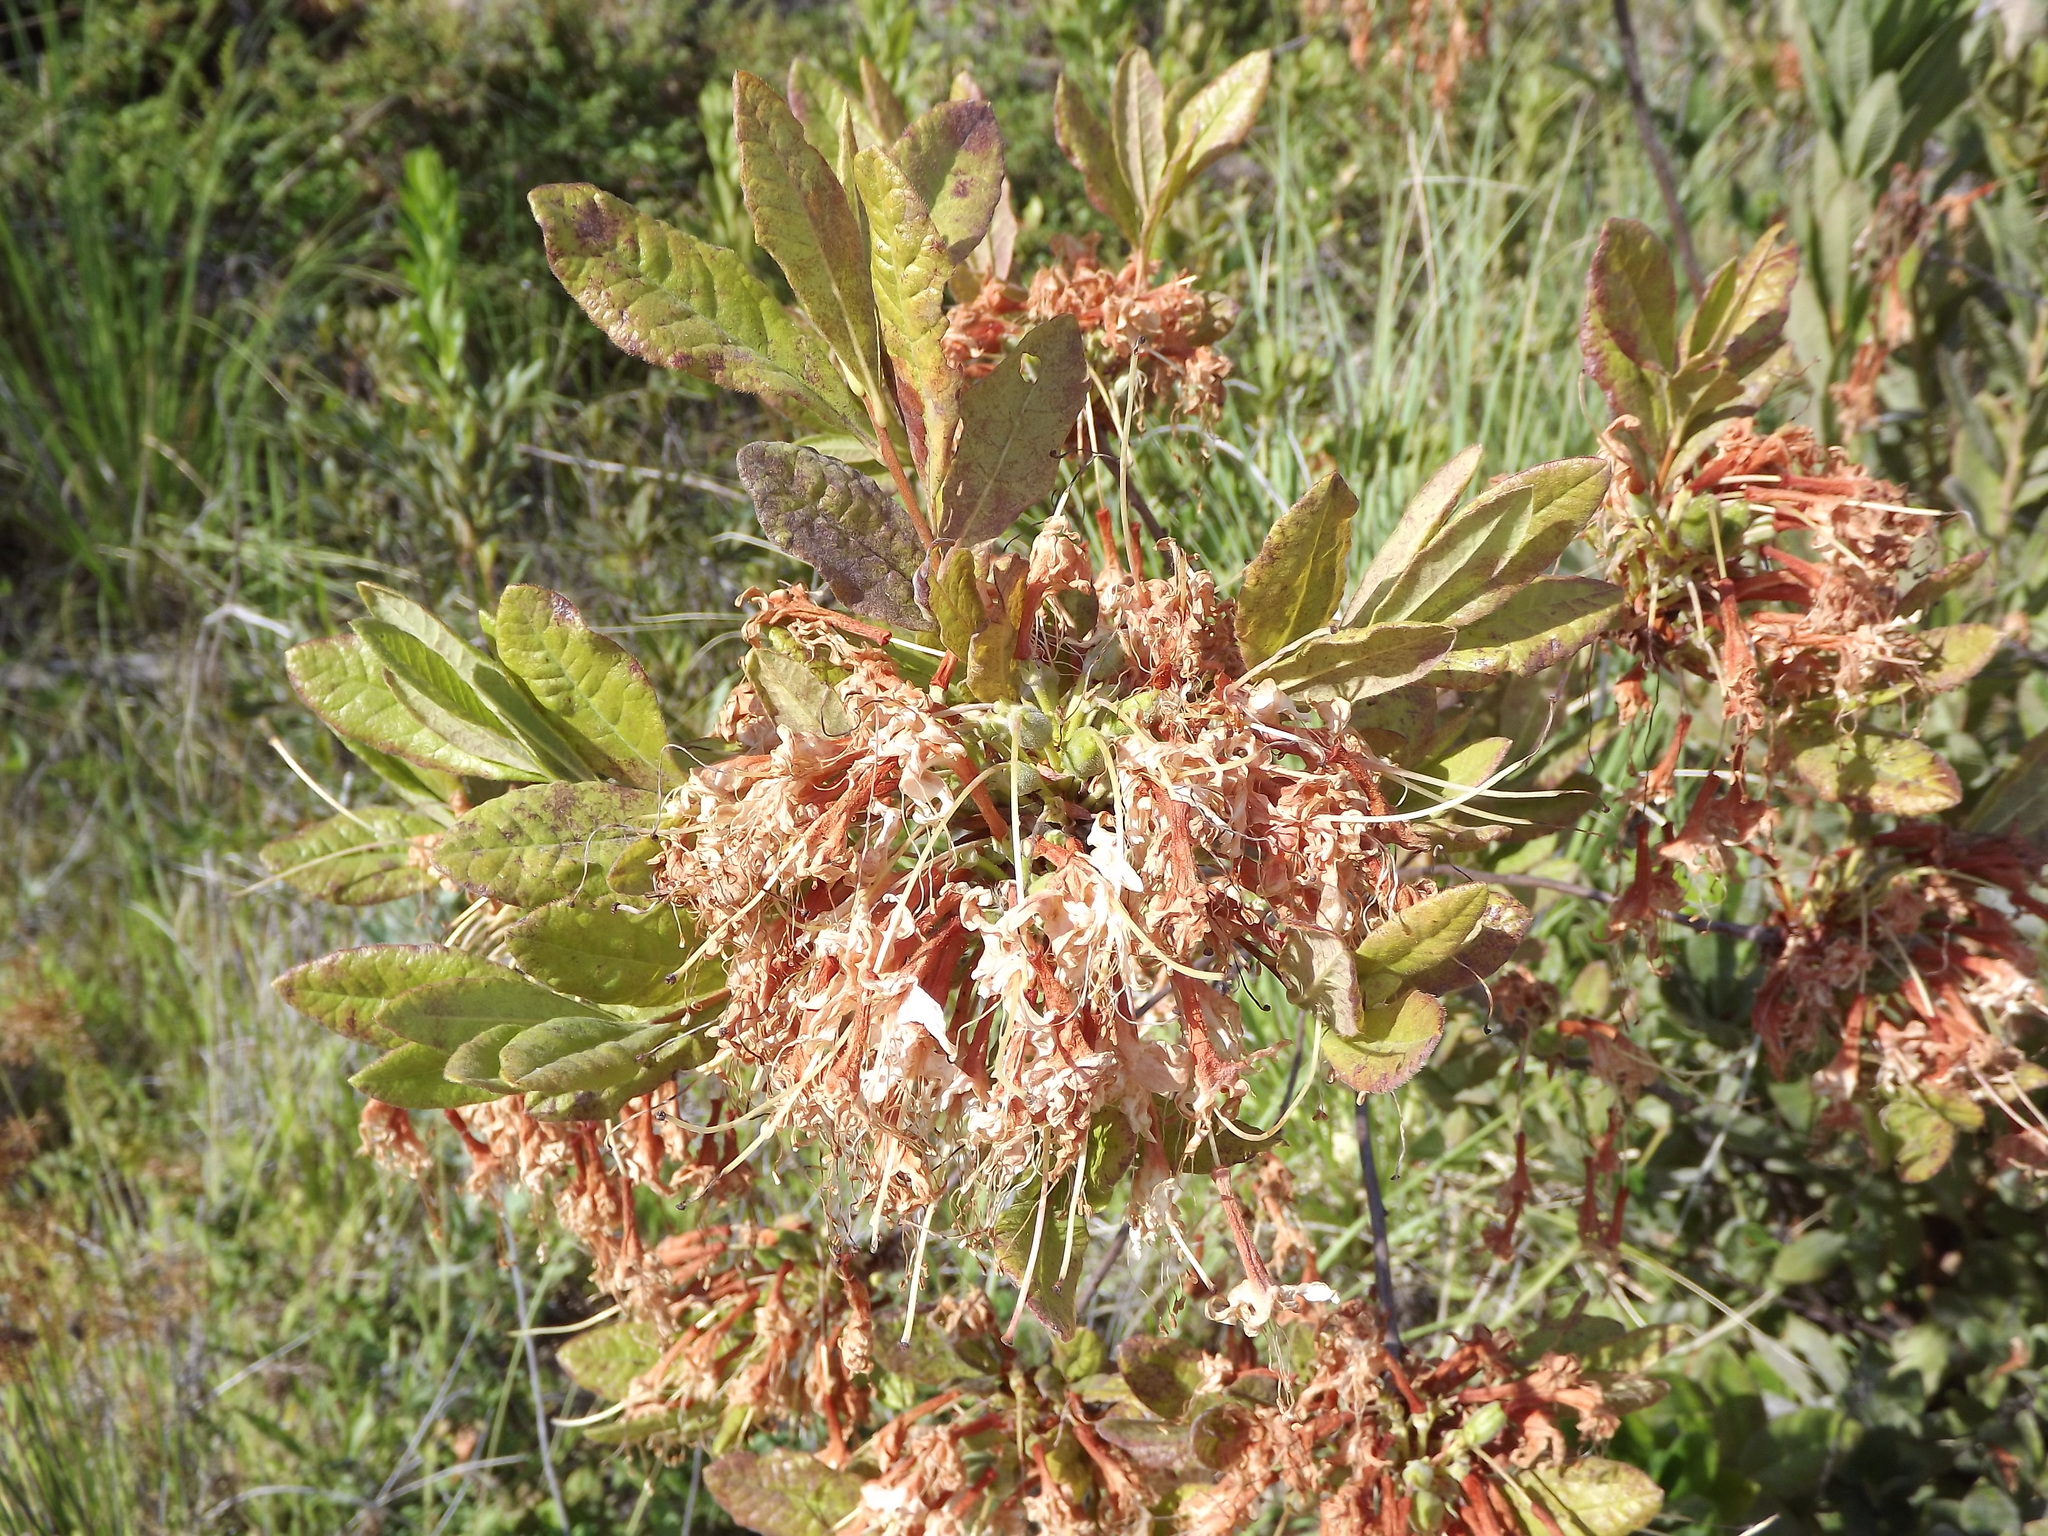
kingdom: Plantae
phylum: Tracheophyta
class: Magnoliopsida
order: Ericales
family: Ericaceae
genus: Rhododendron
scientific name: Rhododendron occidentale
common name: Western azalea
